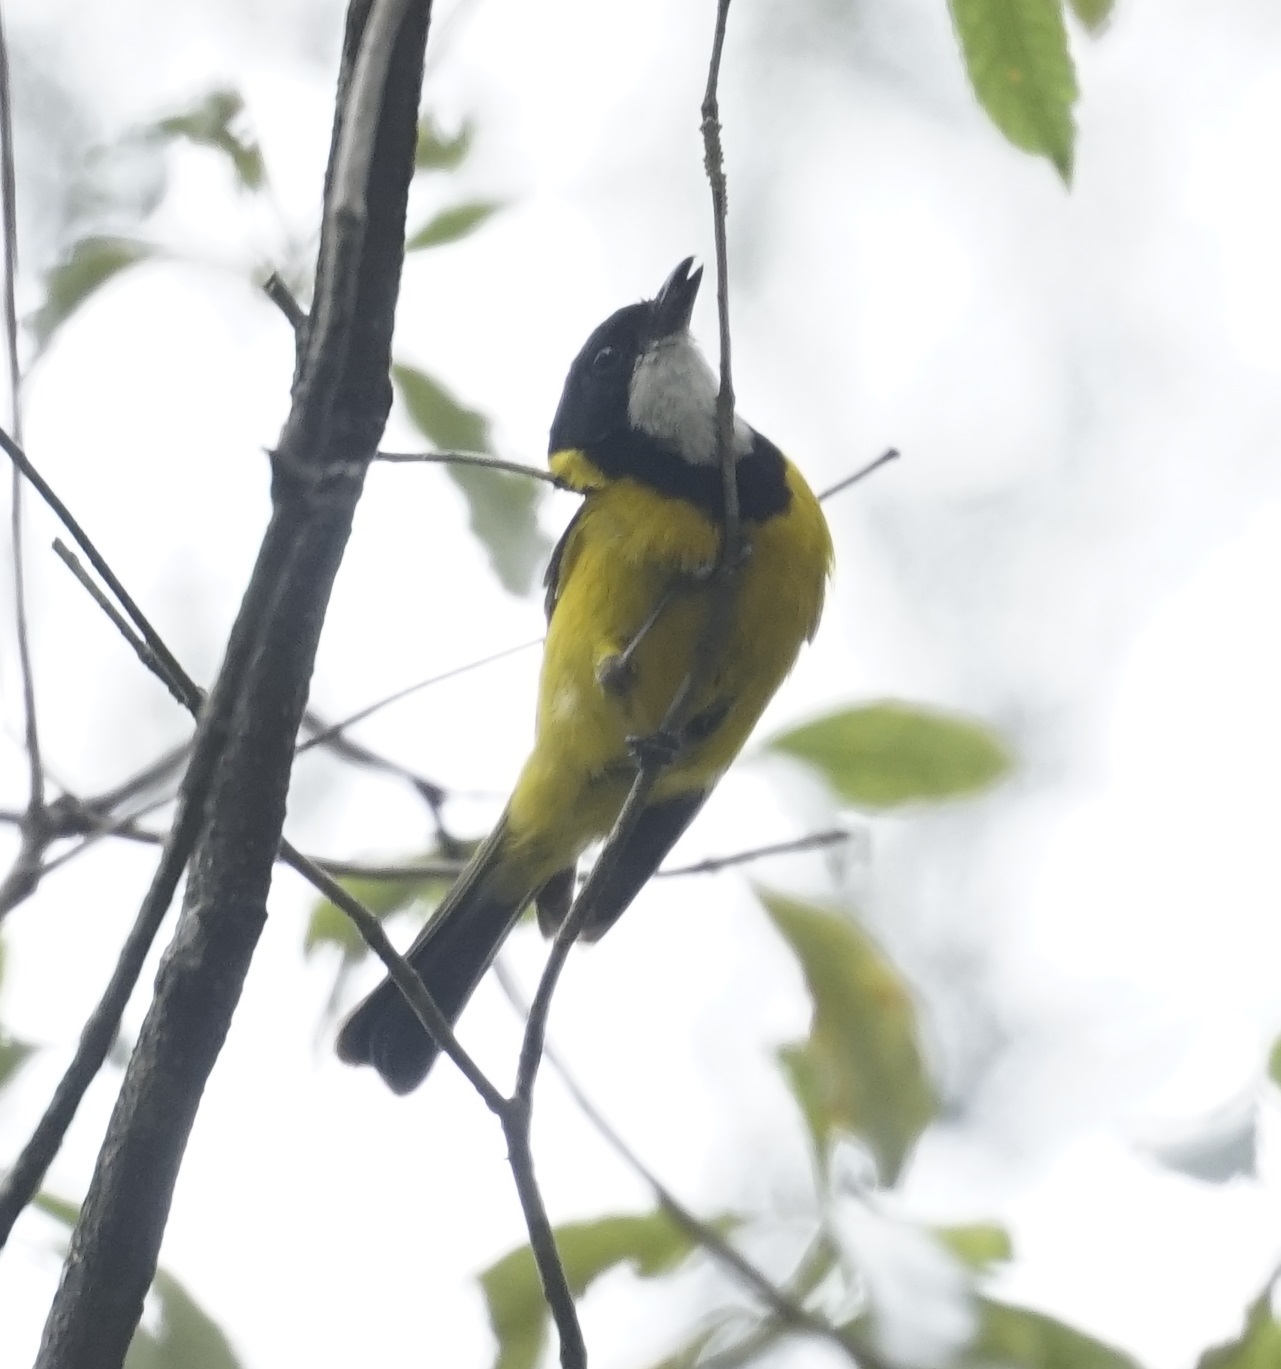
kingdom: Animalia
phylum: Chordata
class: Aves
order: Passeriformes
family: Pachycephalidae
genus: Pachycephala
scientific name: Pachycephala pectoralis
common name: Australian golden whistler
